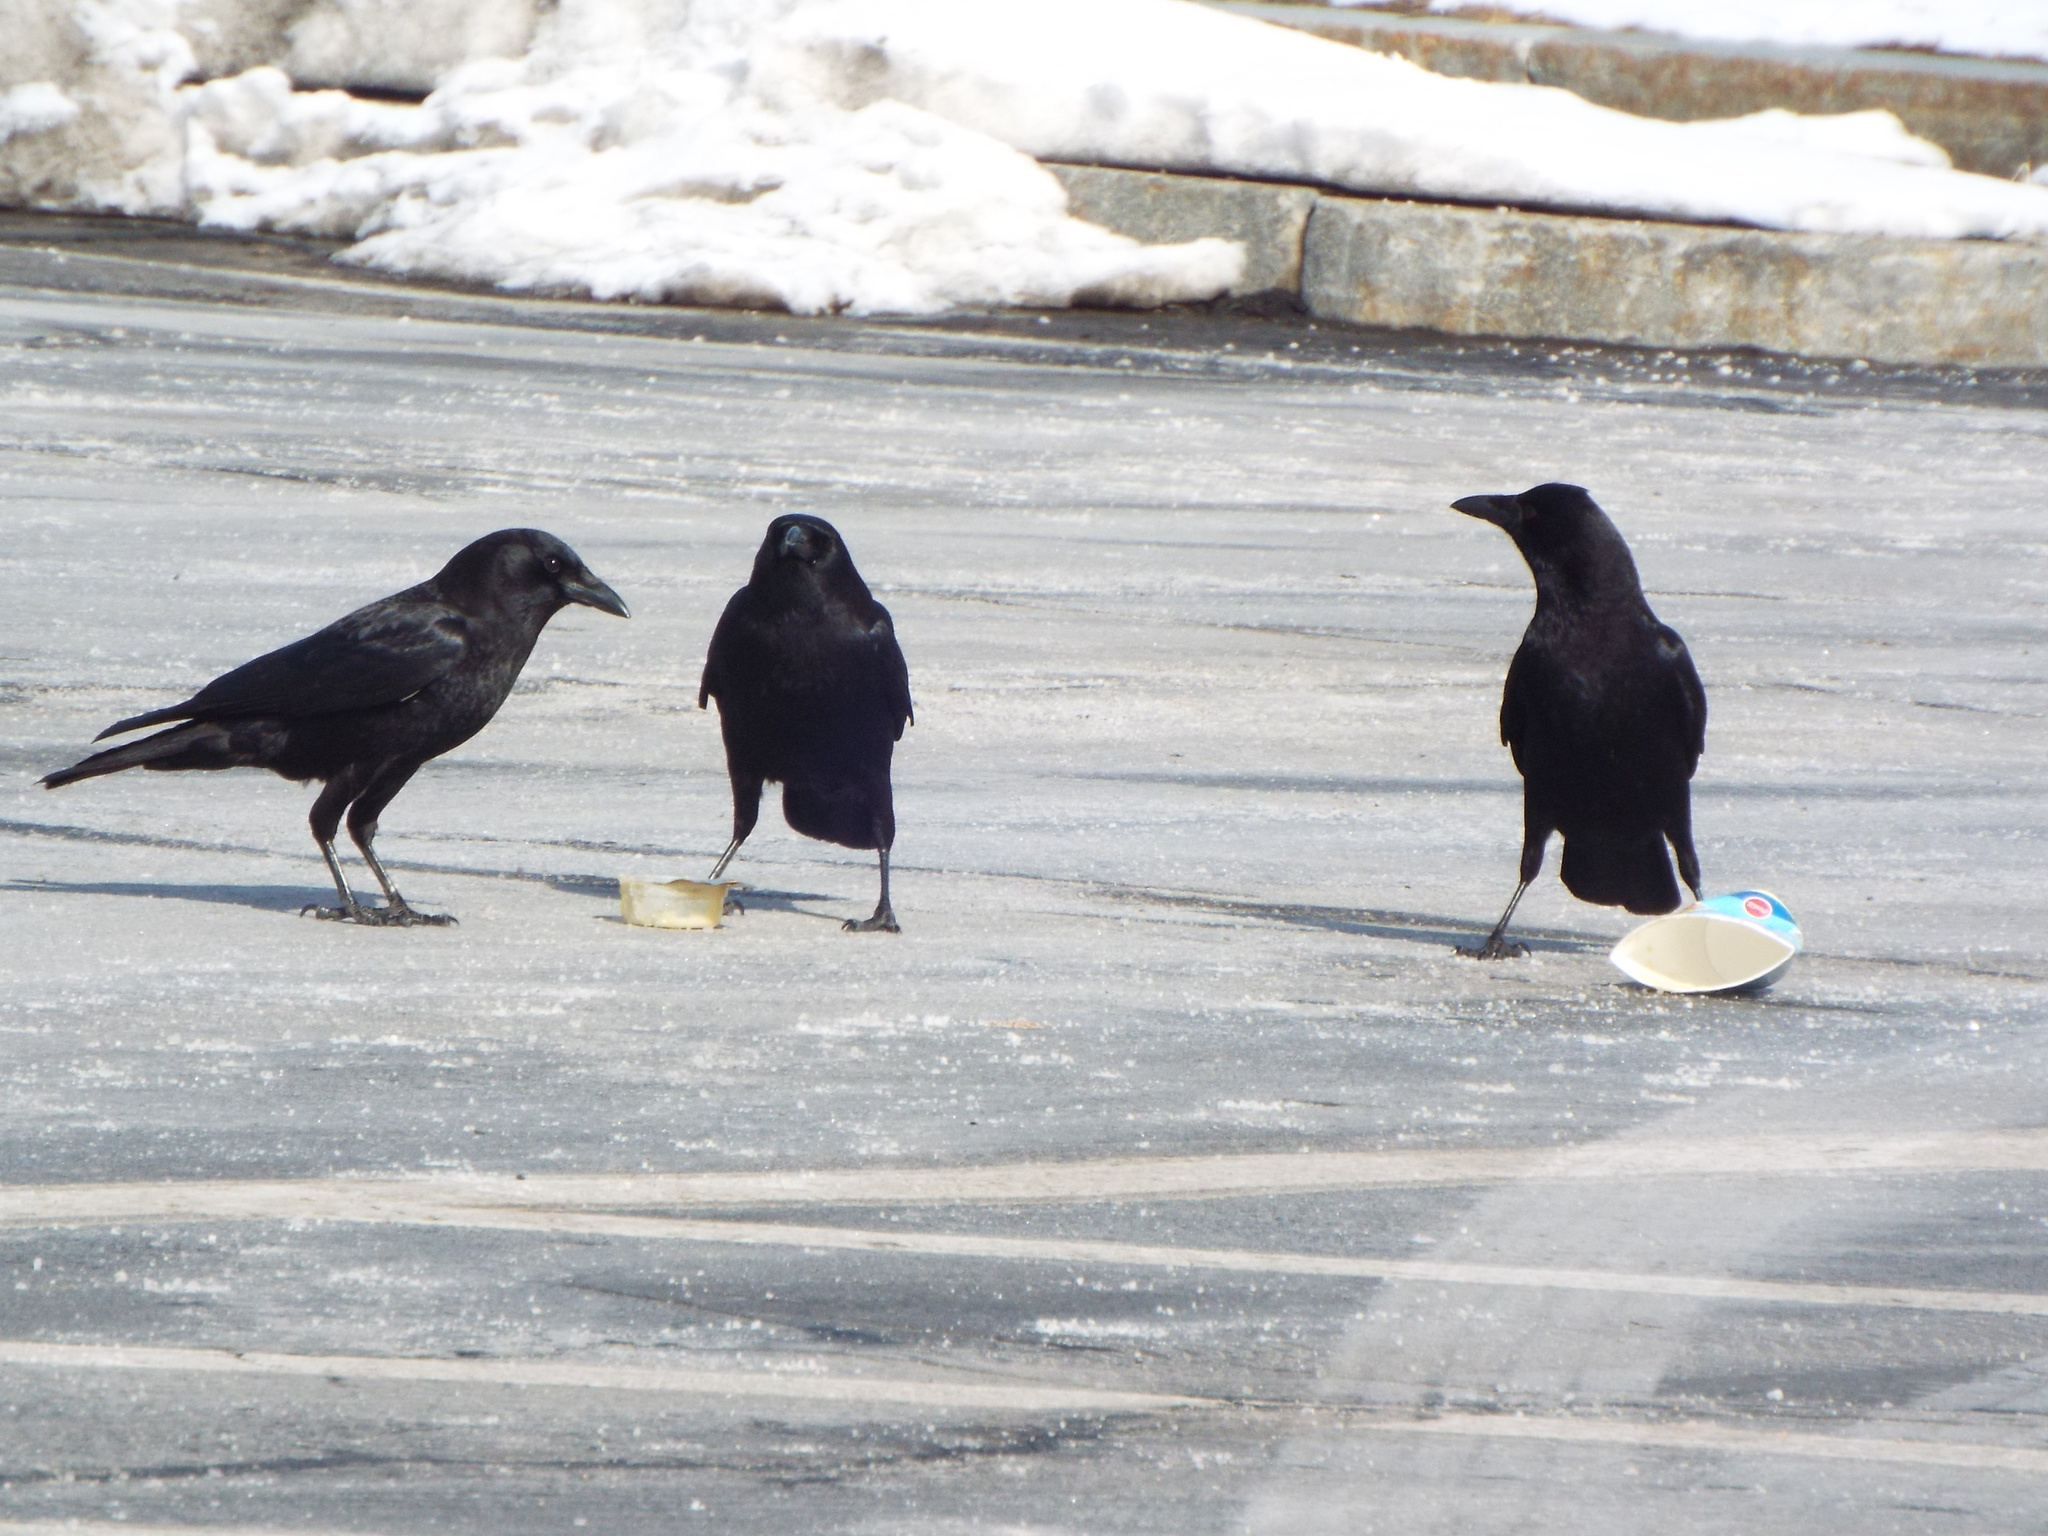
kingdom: Animalia
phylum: Chordata
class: Aves
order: Passeriformes
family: Corvidae
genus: Corvus
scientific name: Corvus brachyrhynchos
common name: American crow
